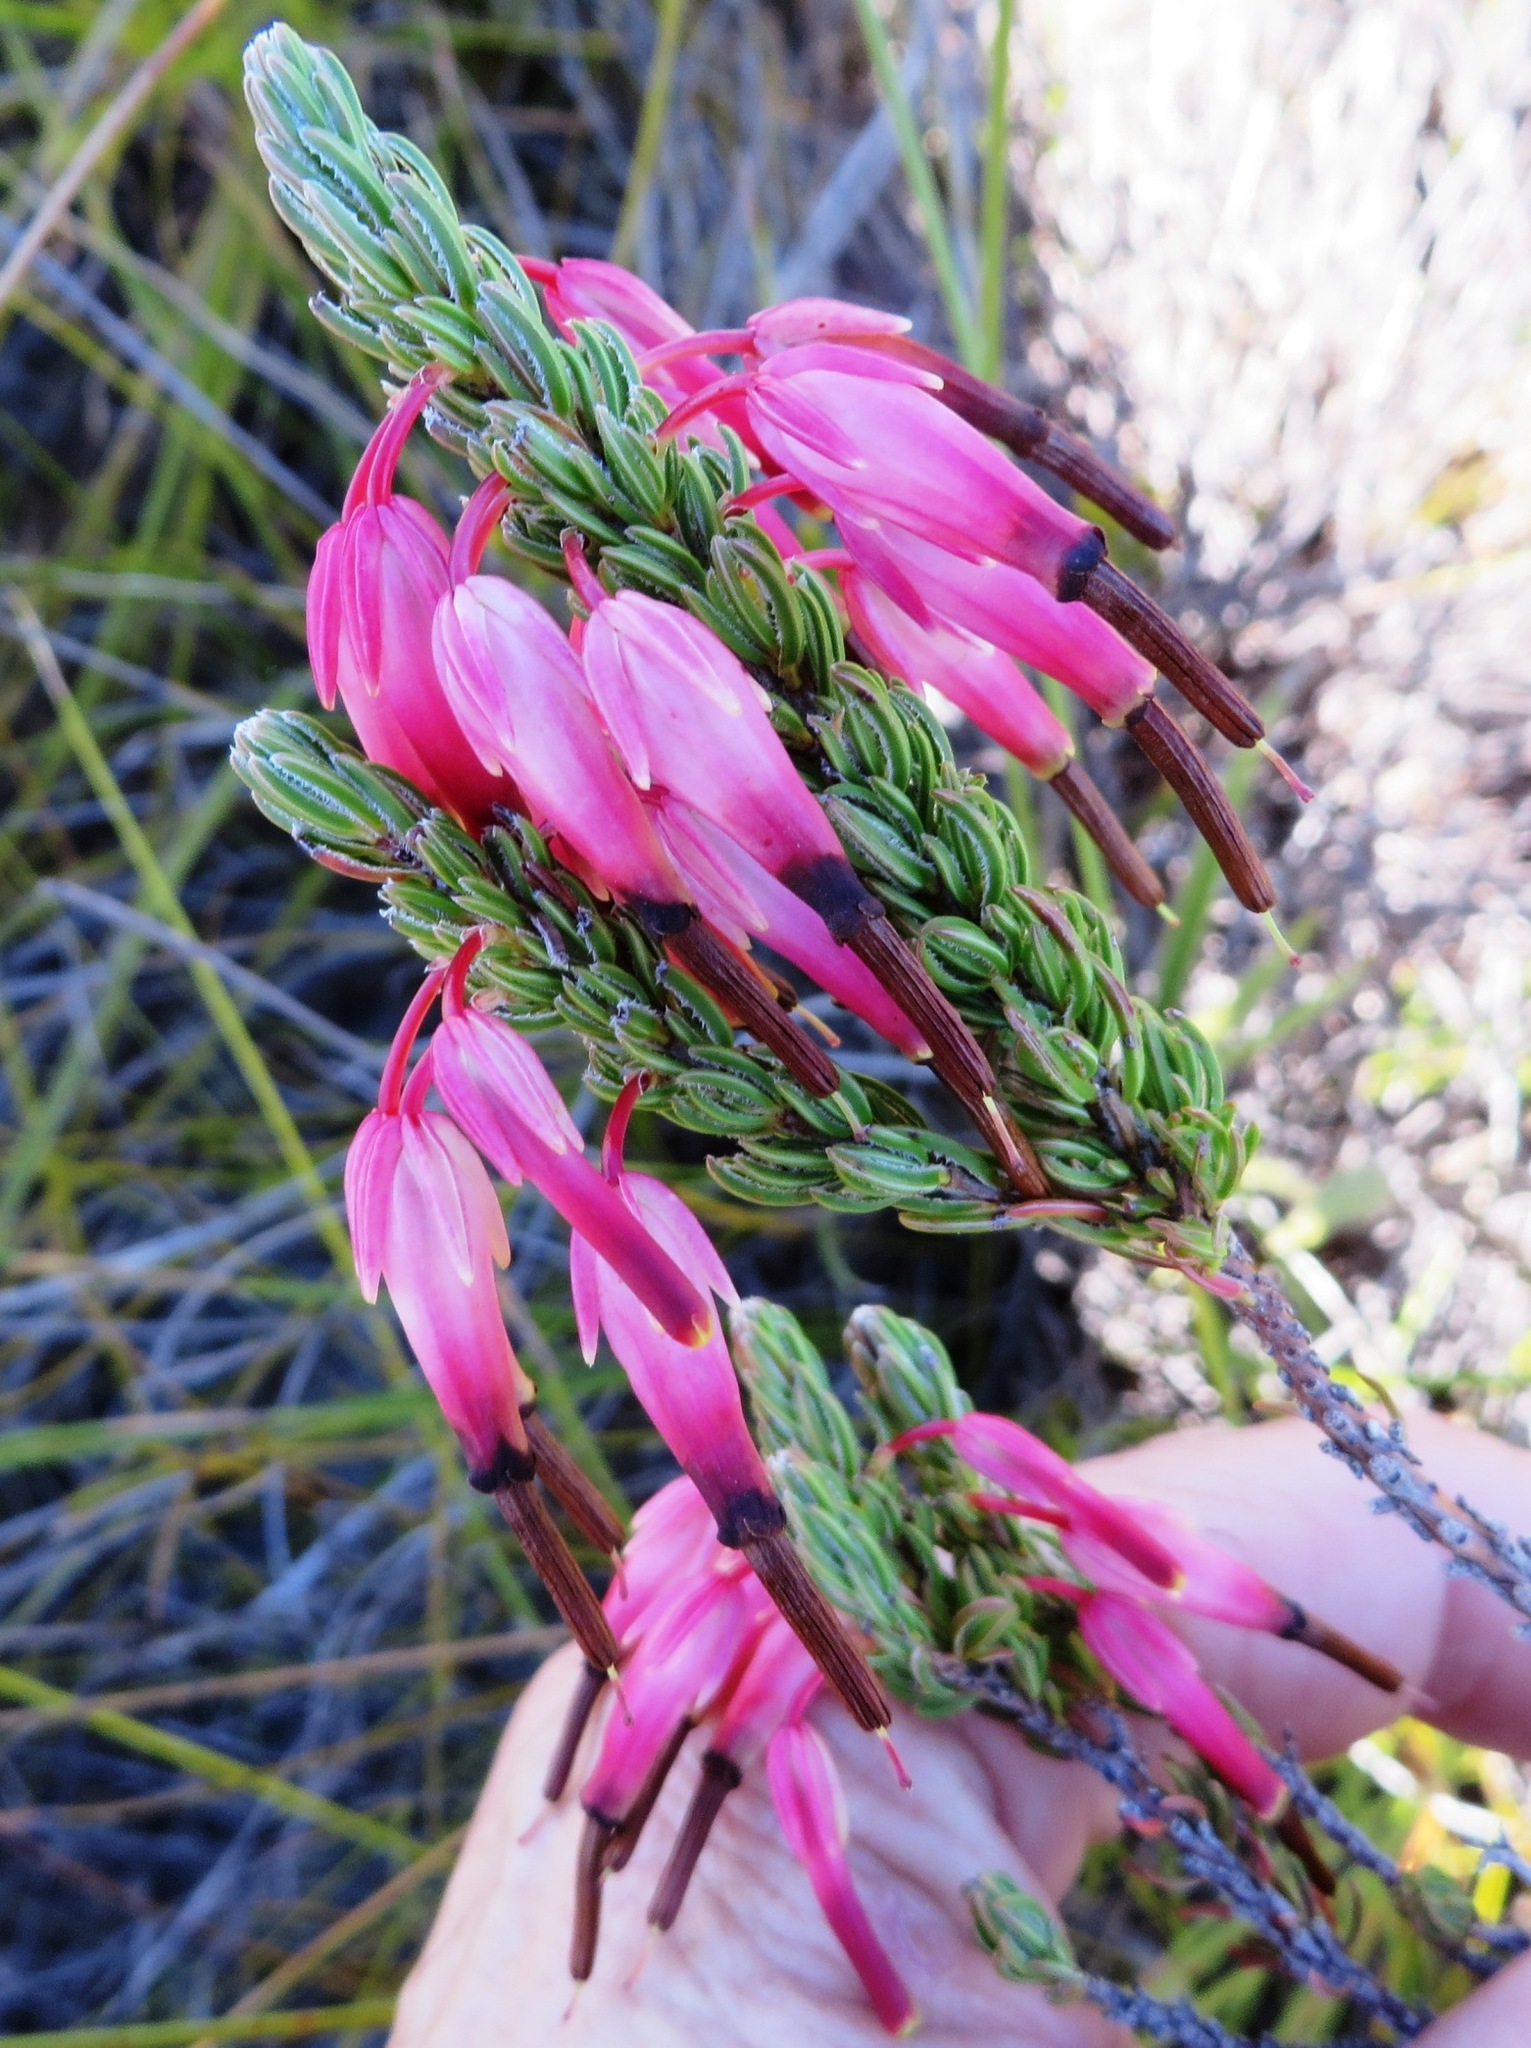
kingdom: Plantae
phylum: Tracheophyta
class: Magnoliopsida
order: Ericales
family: Ericaceae
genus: Erica
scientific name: Erica plukenetii
